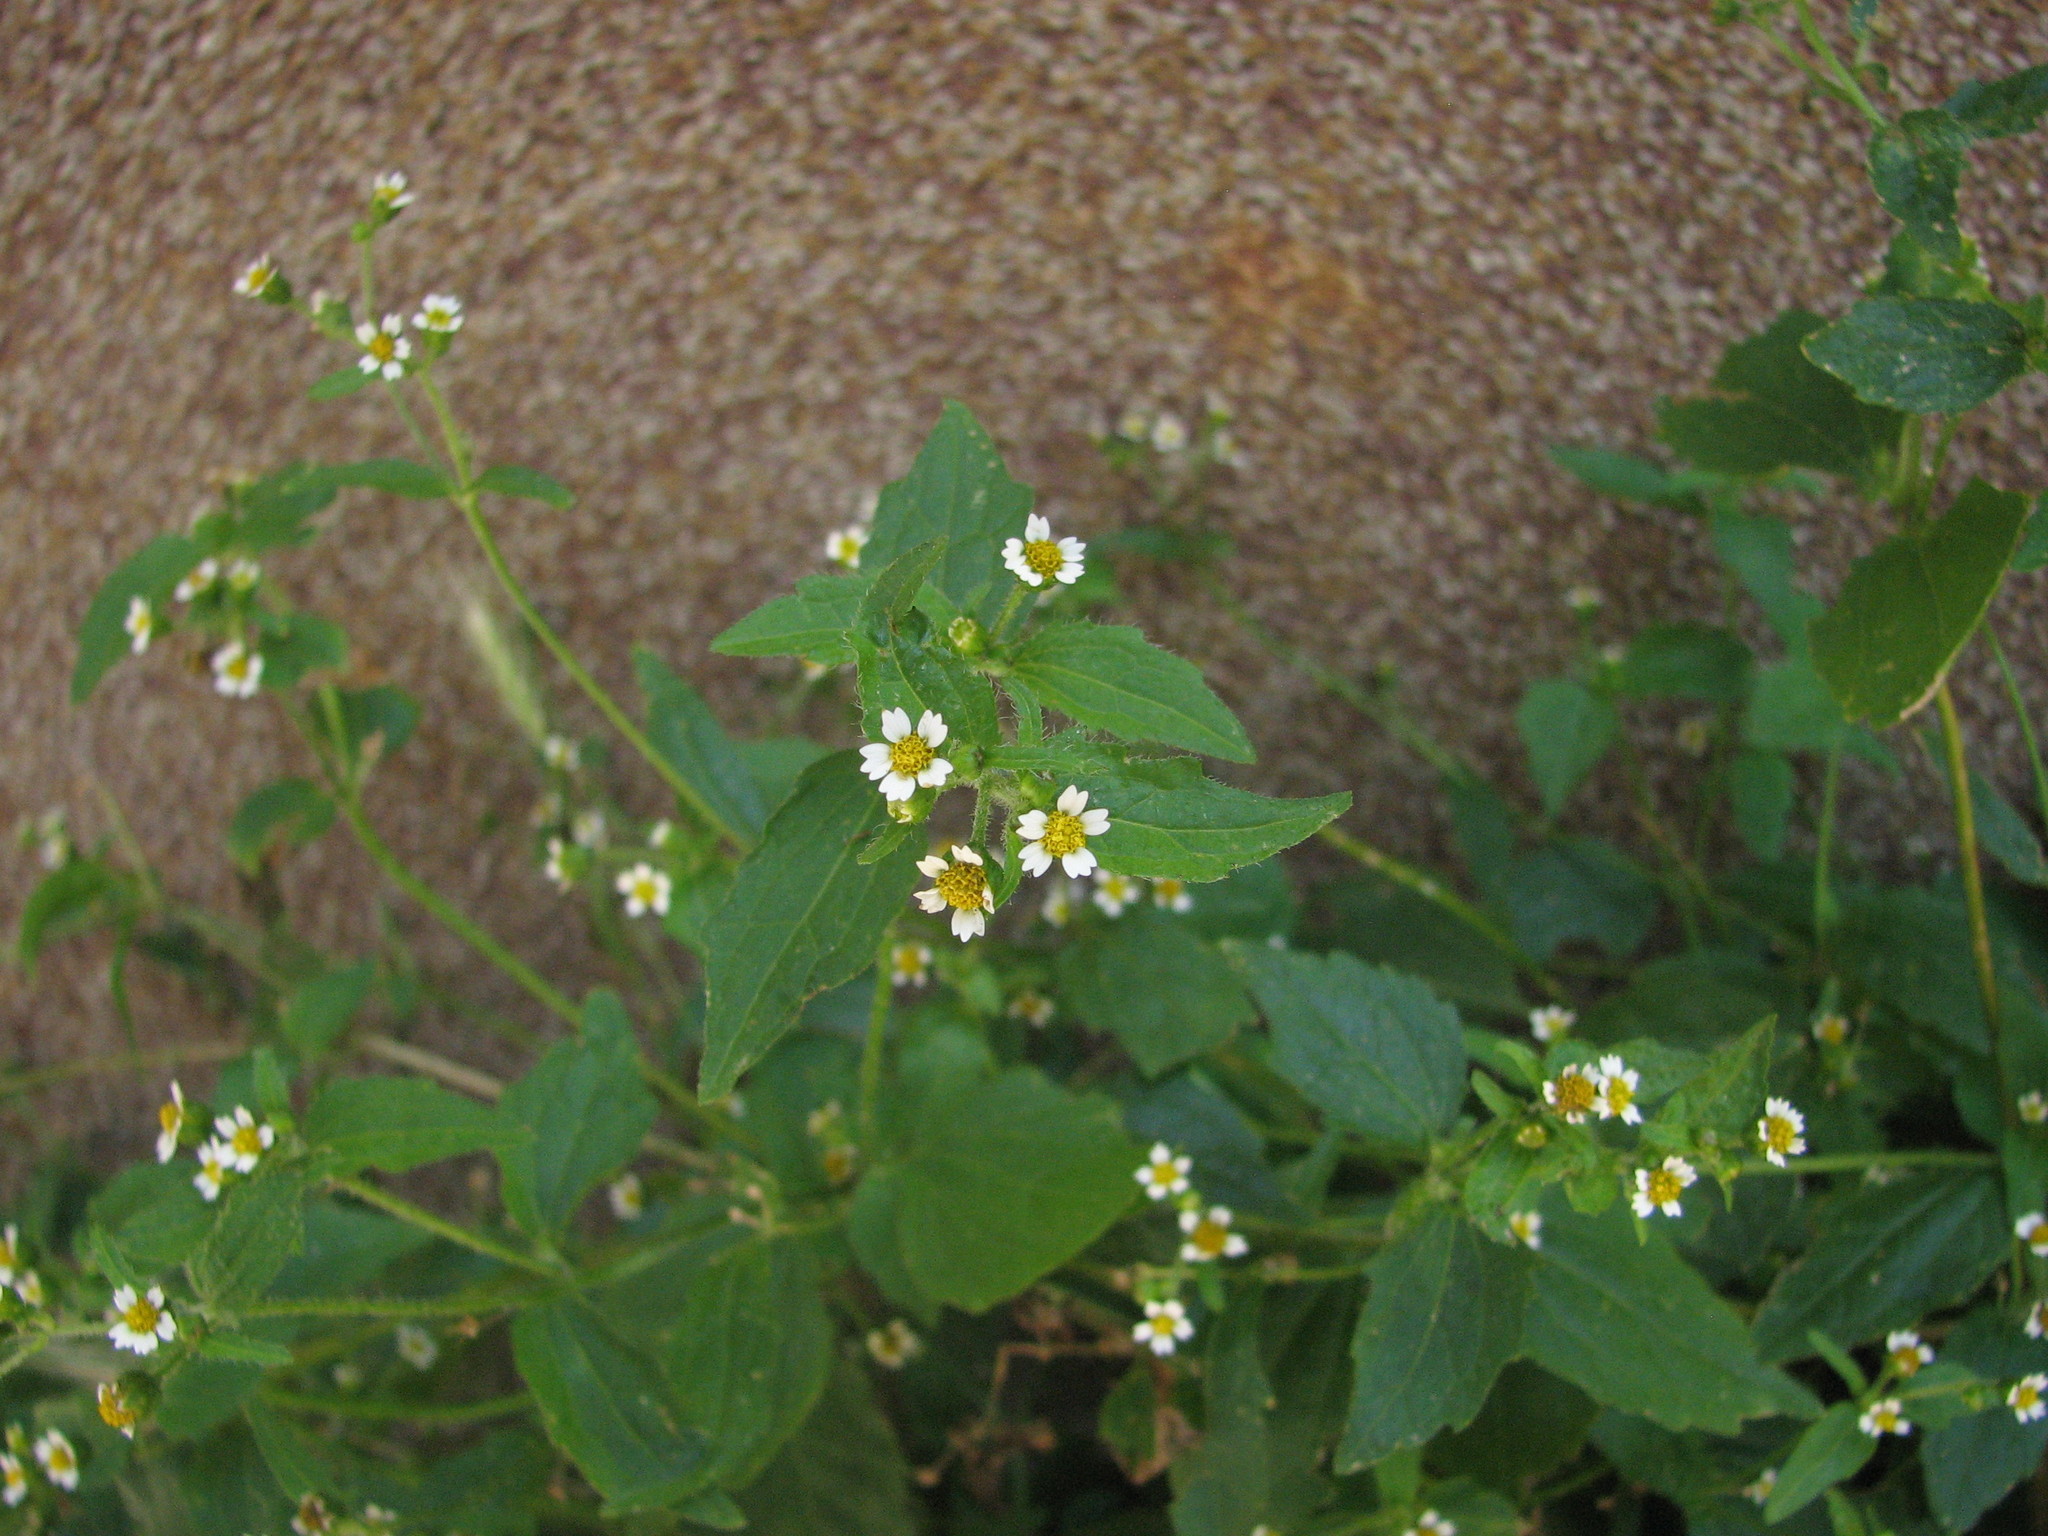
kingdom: Plantae
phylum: Tracheophyta
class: Magnoliopsida
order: Asterales
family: Asteraceae
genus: Galinsoga
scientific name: Galinsoga quadriradiata
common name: Shaggy soldier
